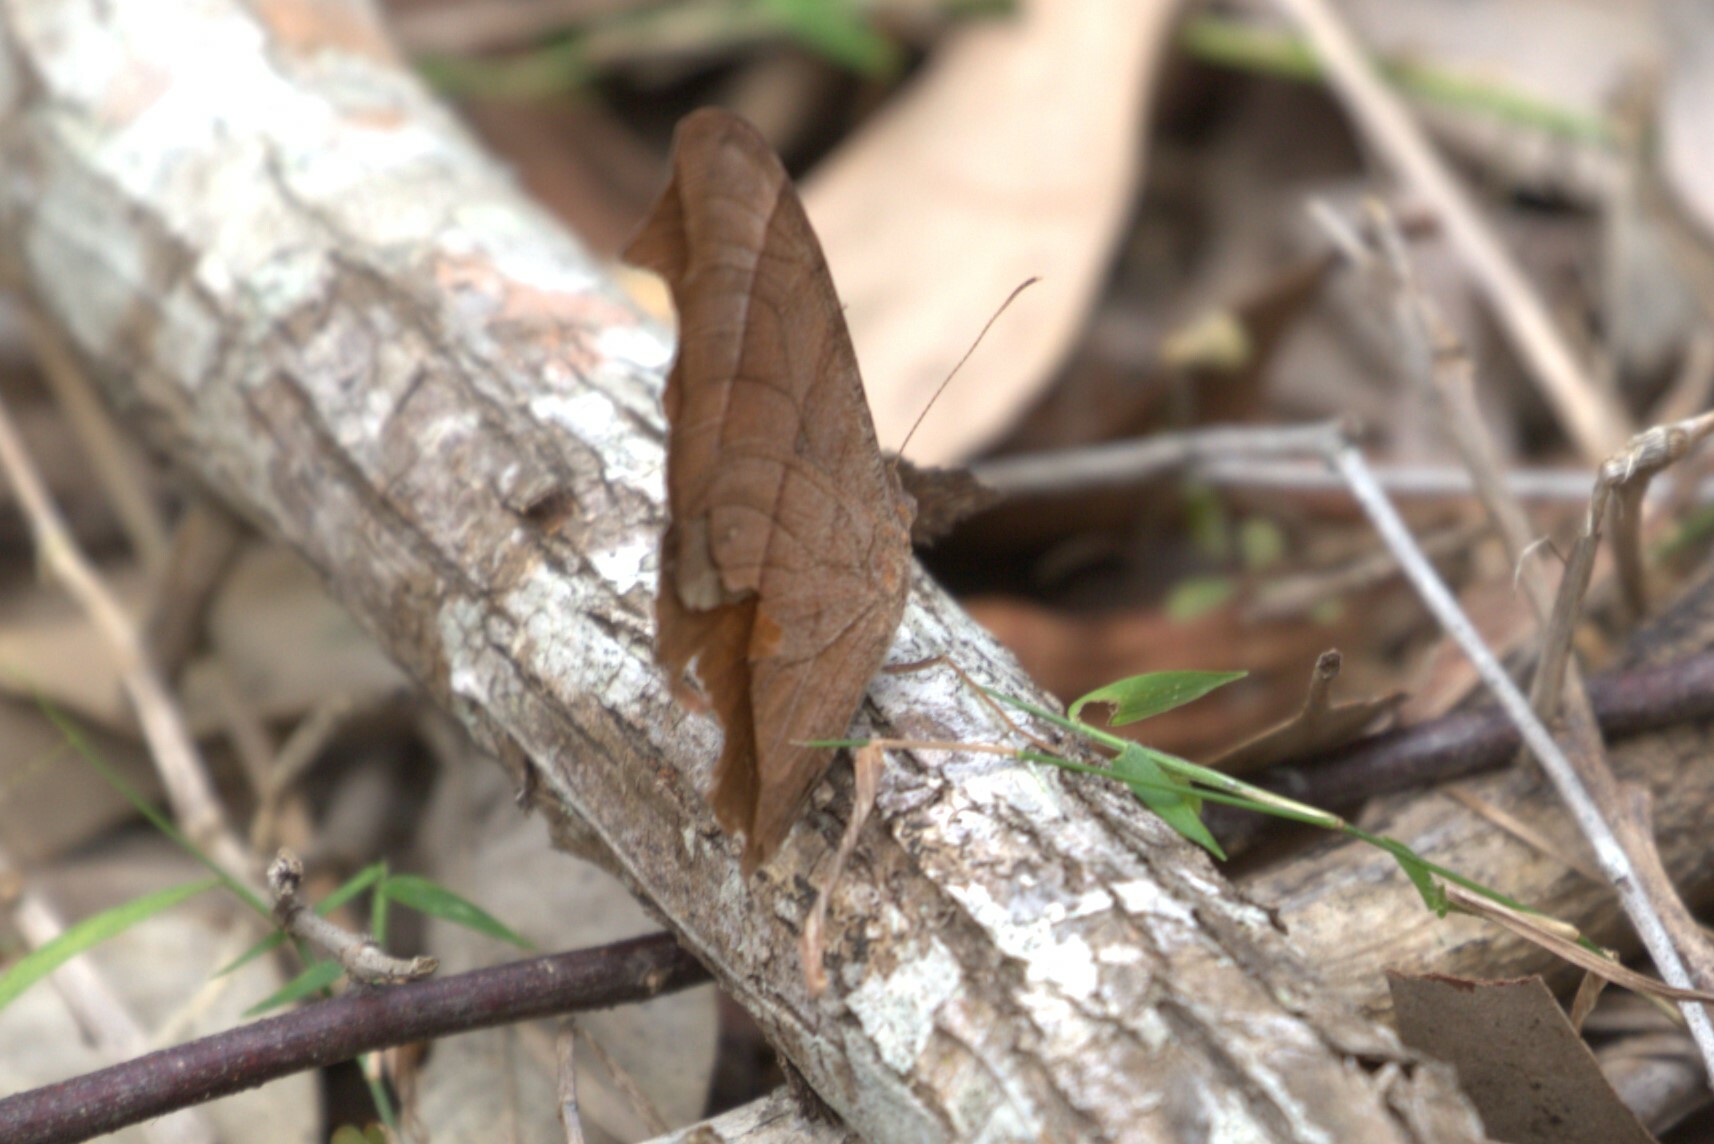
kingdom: Animalia
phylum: Arthropoda
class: Insecta
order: Lepidoptera
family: Nymphalidae
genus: Melanitis
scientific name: Melanitis leda
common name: Twilight brown
